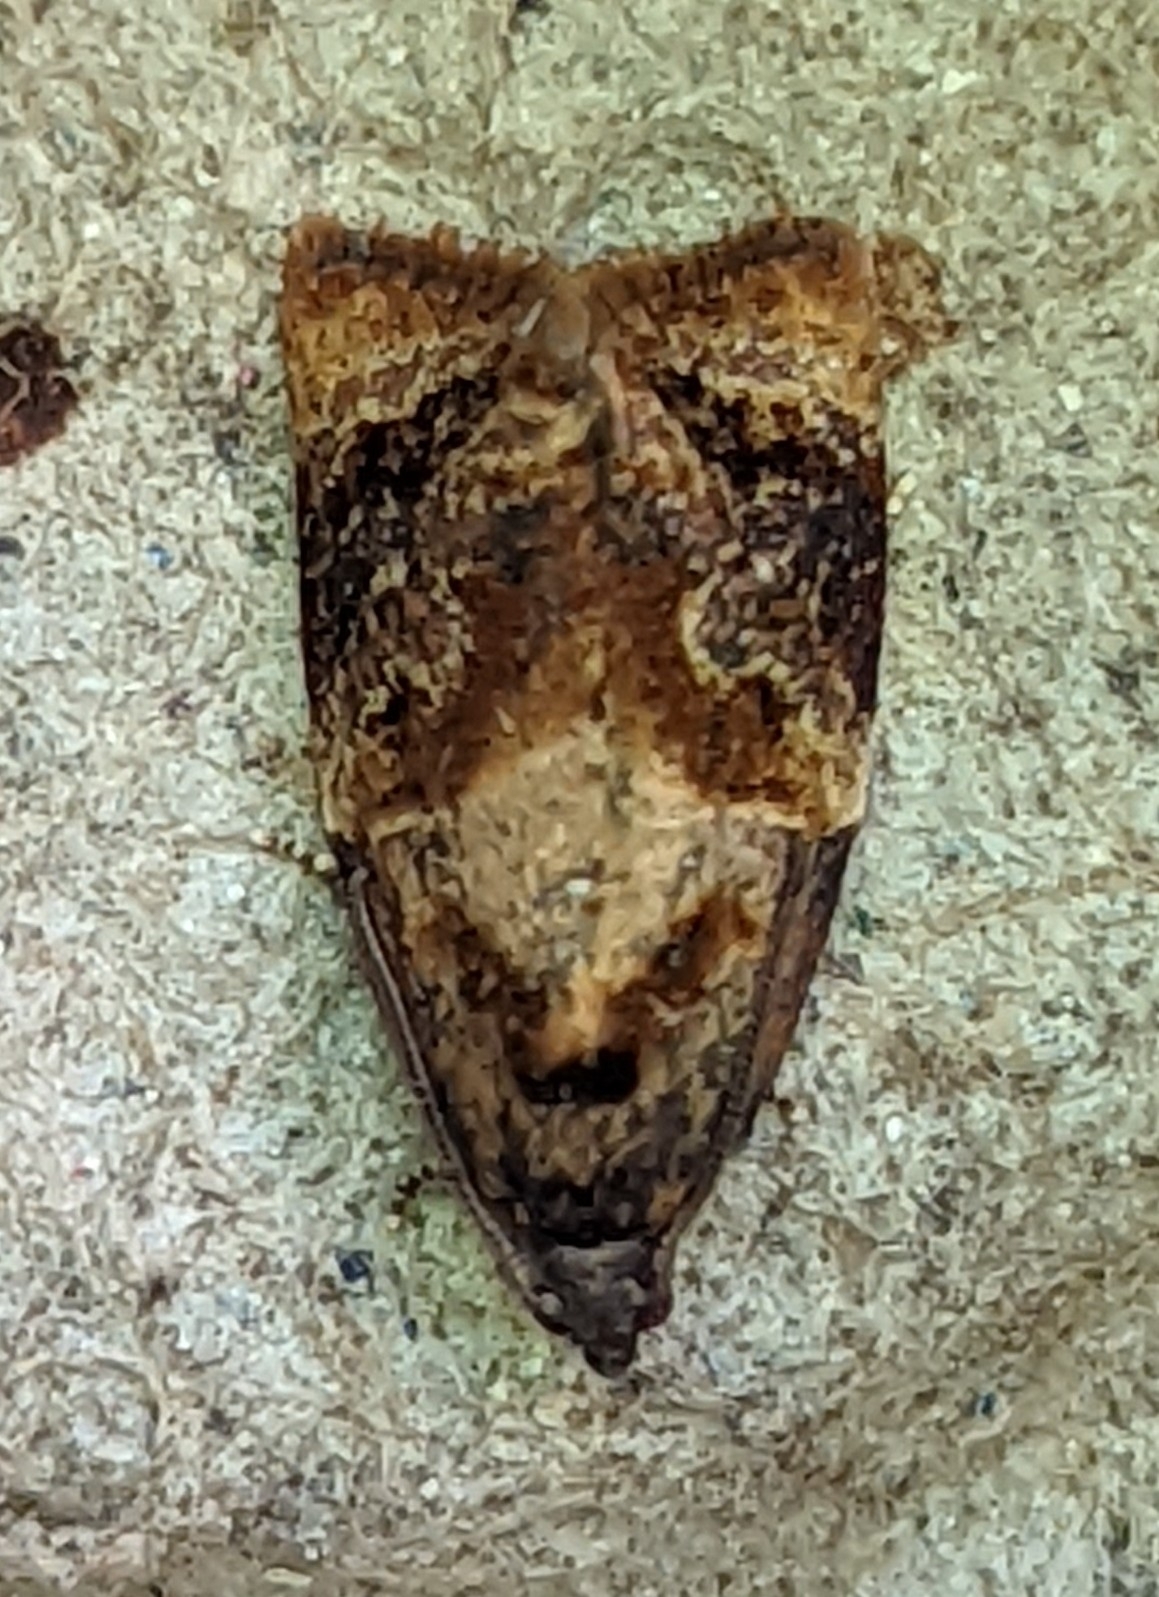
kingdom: Animalia
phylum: Arthropoda
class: Insecta
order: Lepidoptera
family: Tortricidae
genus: Ditula
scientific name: Ditula angustiorana
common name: Red-barred tortrix
